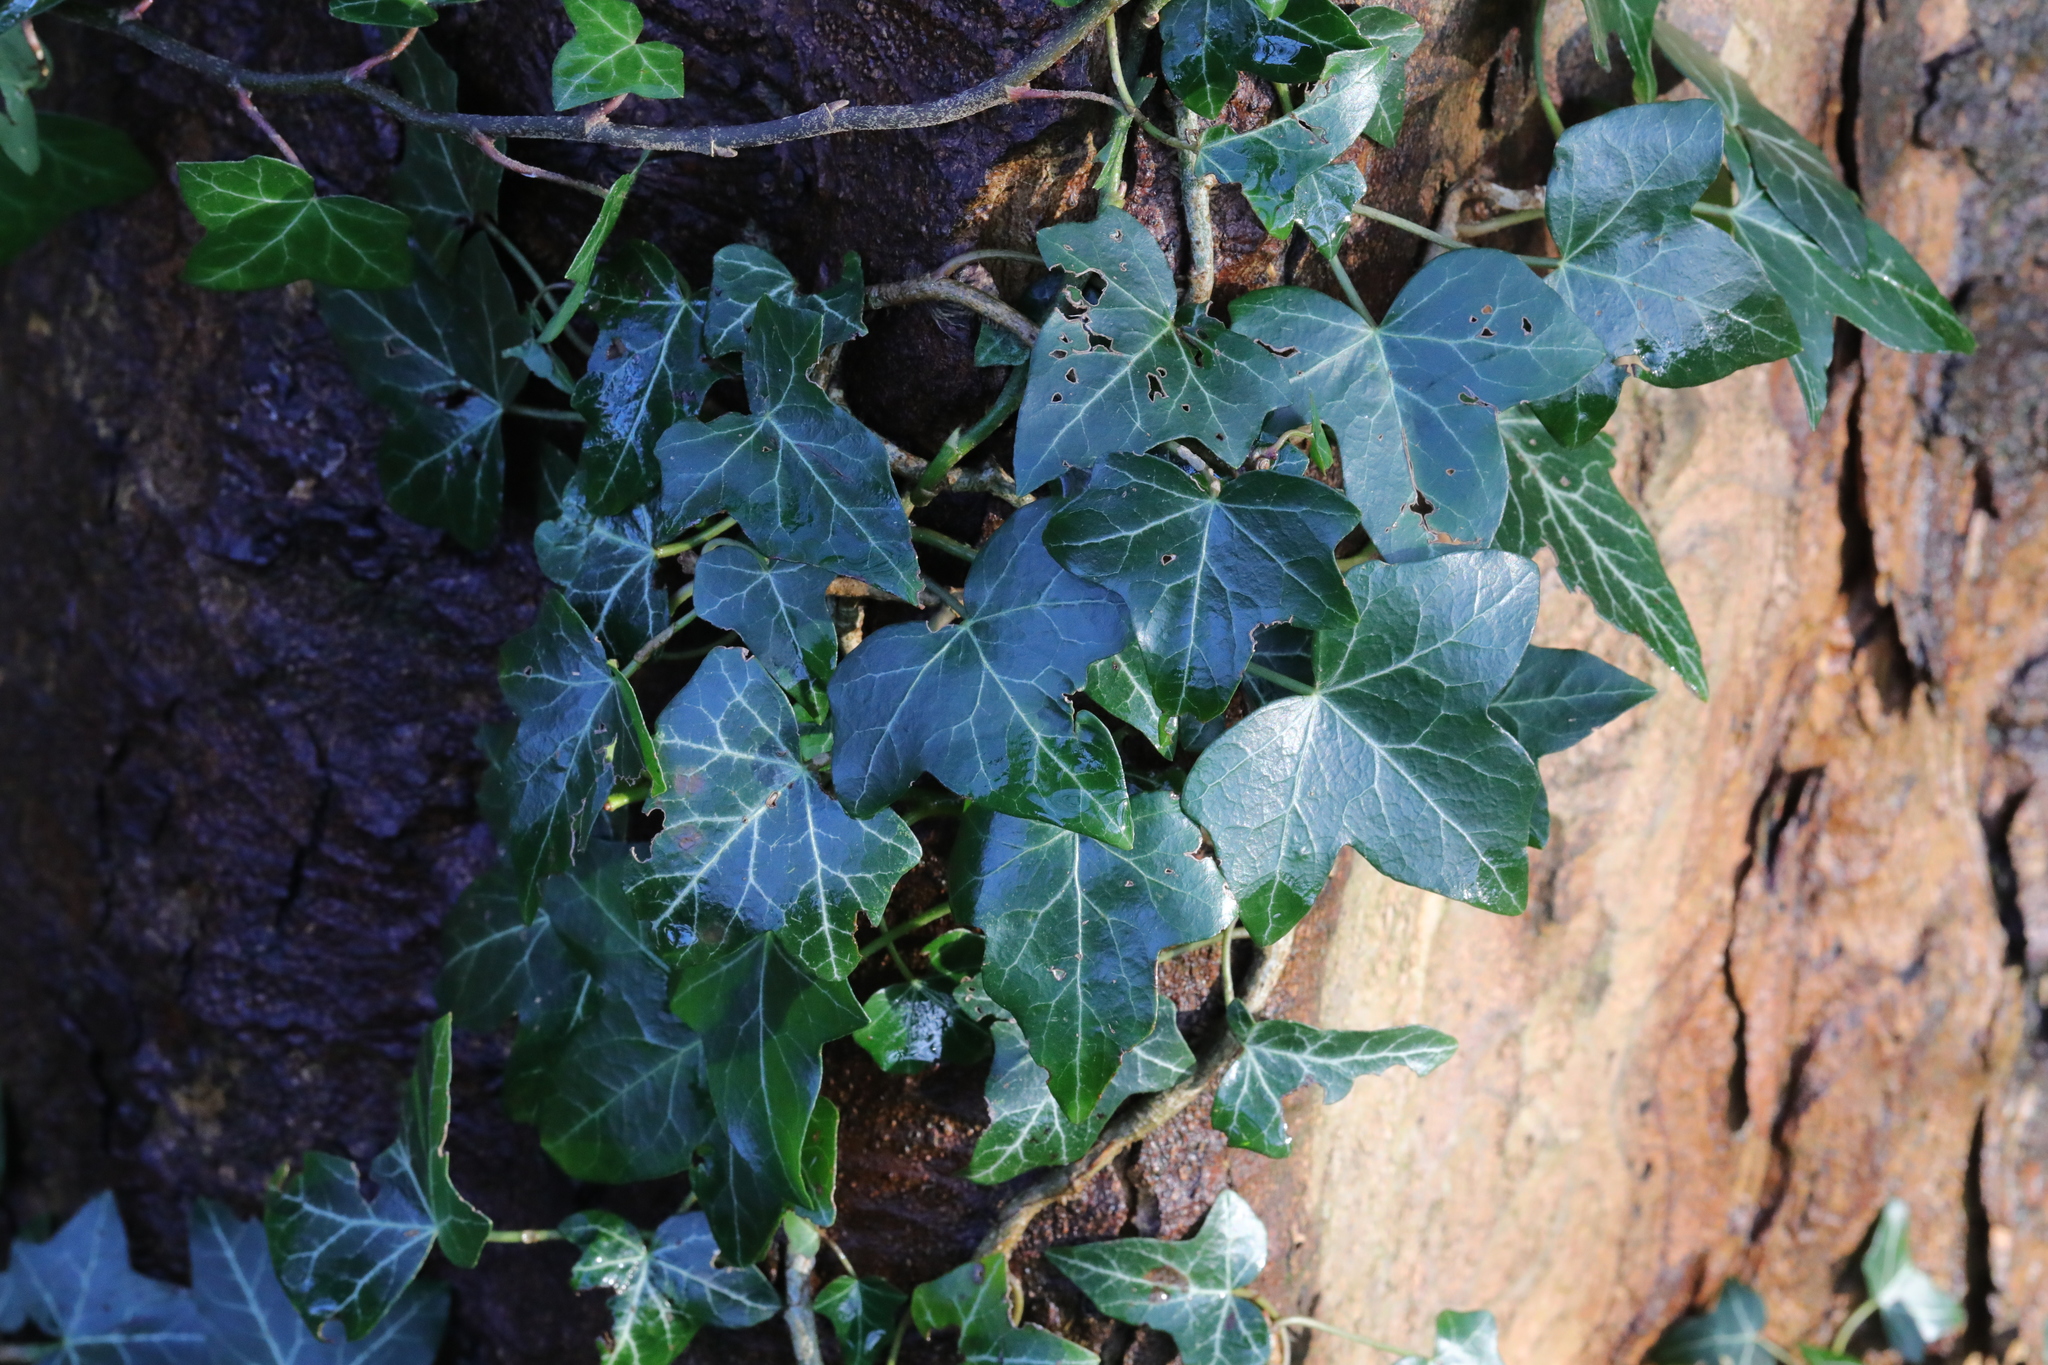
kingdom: Plantae
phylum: Tracheophyta
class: Magnoliopsida
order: Apiales
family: Araliaceae
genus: Hedera
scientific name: Hedera helix
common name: Ivy
